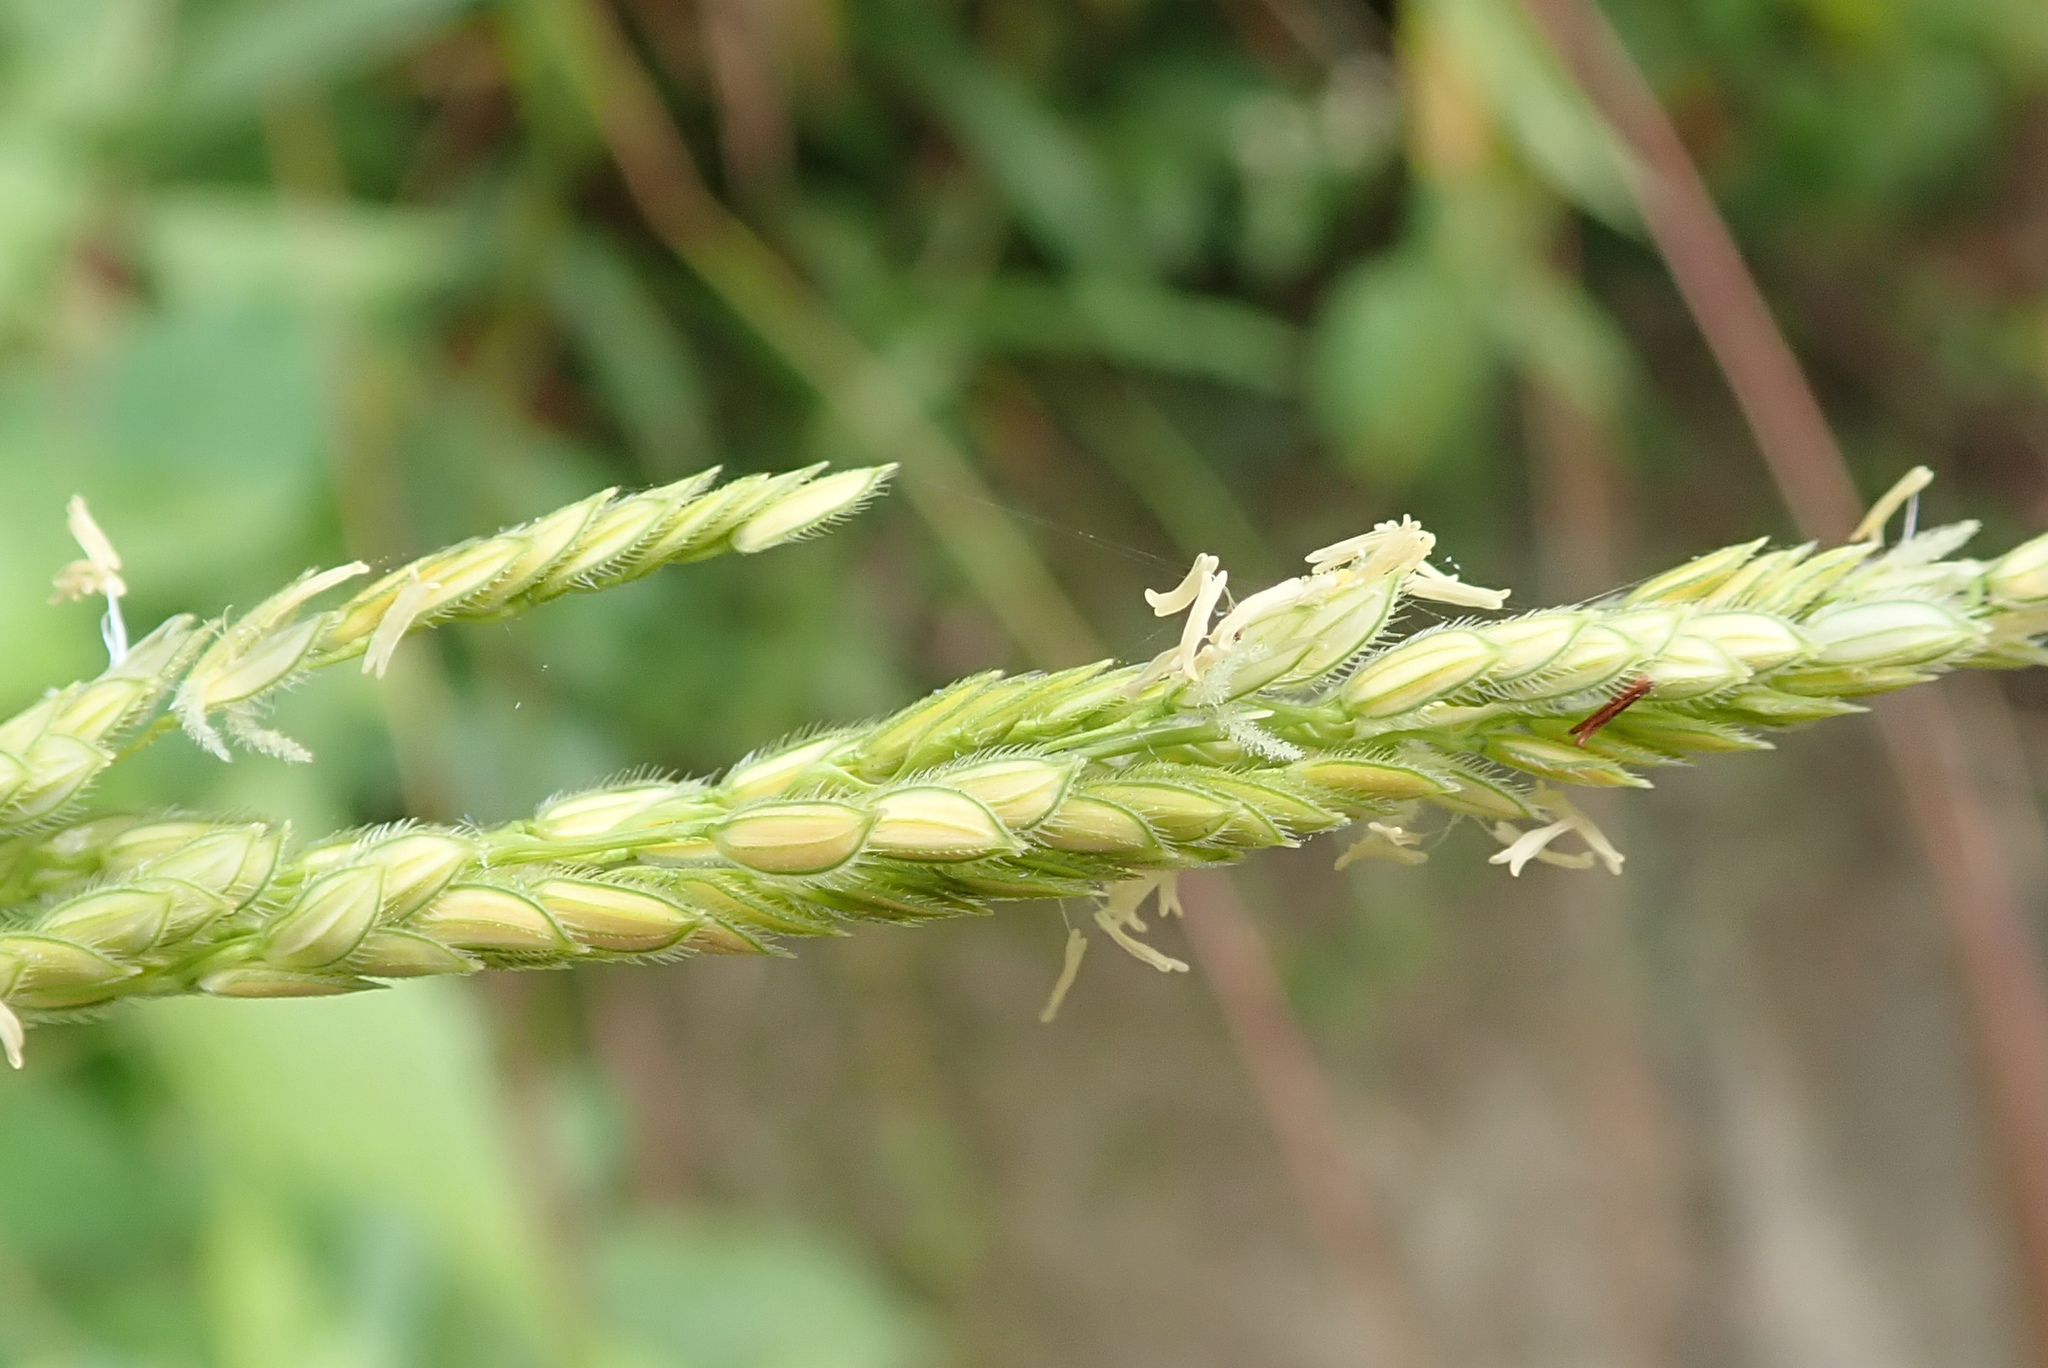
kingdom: Plantae
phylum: Tracheophyta
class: Liliopsida
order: Poales
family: Poaceae
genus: Leersia
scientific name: Leersia hexandra
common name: Southern cut grass
